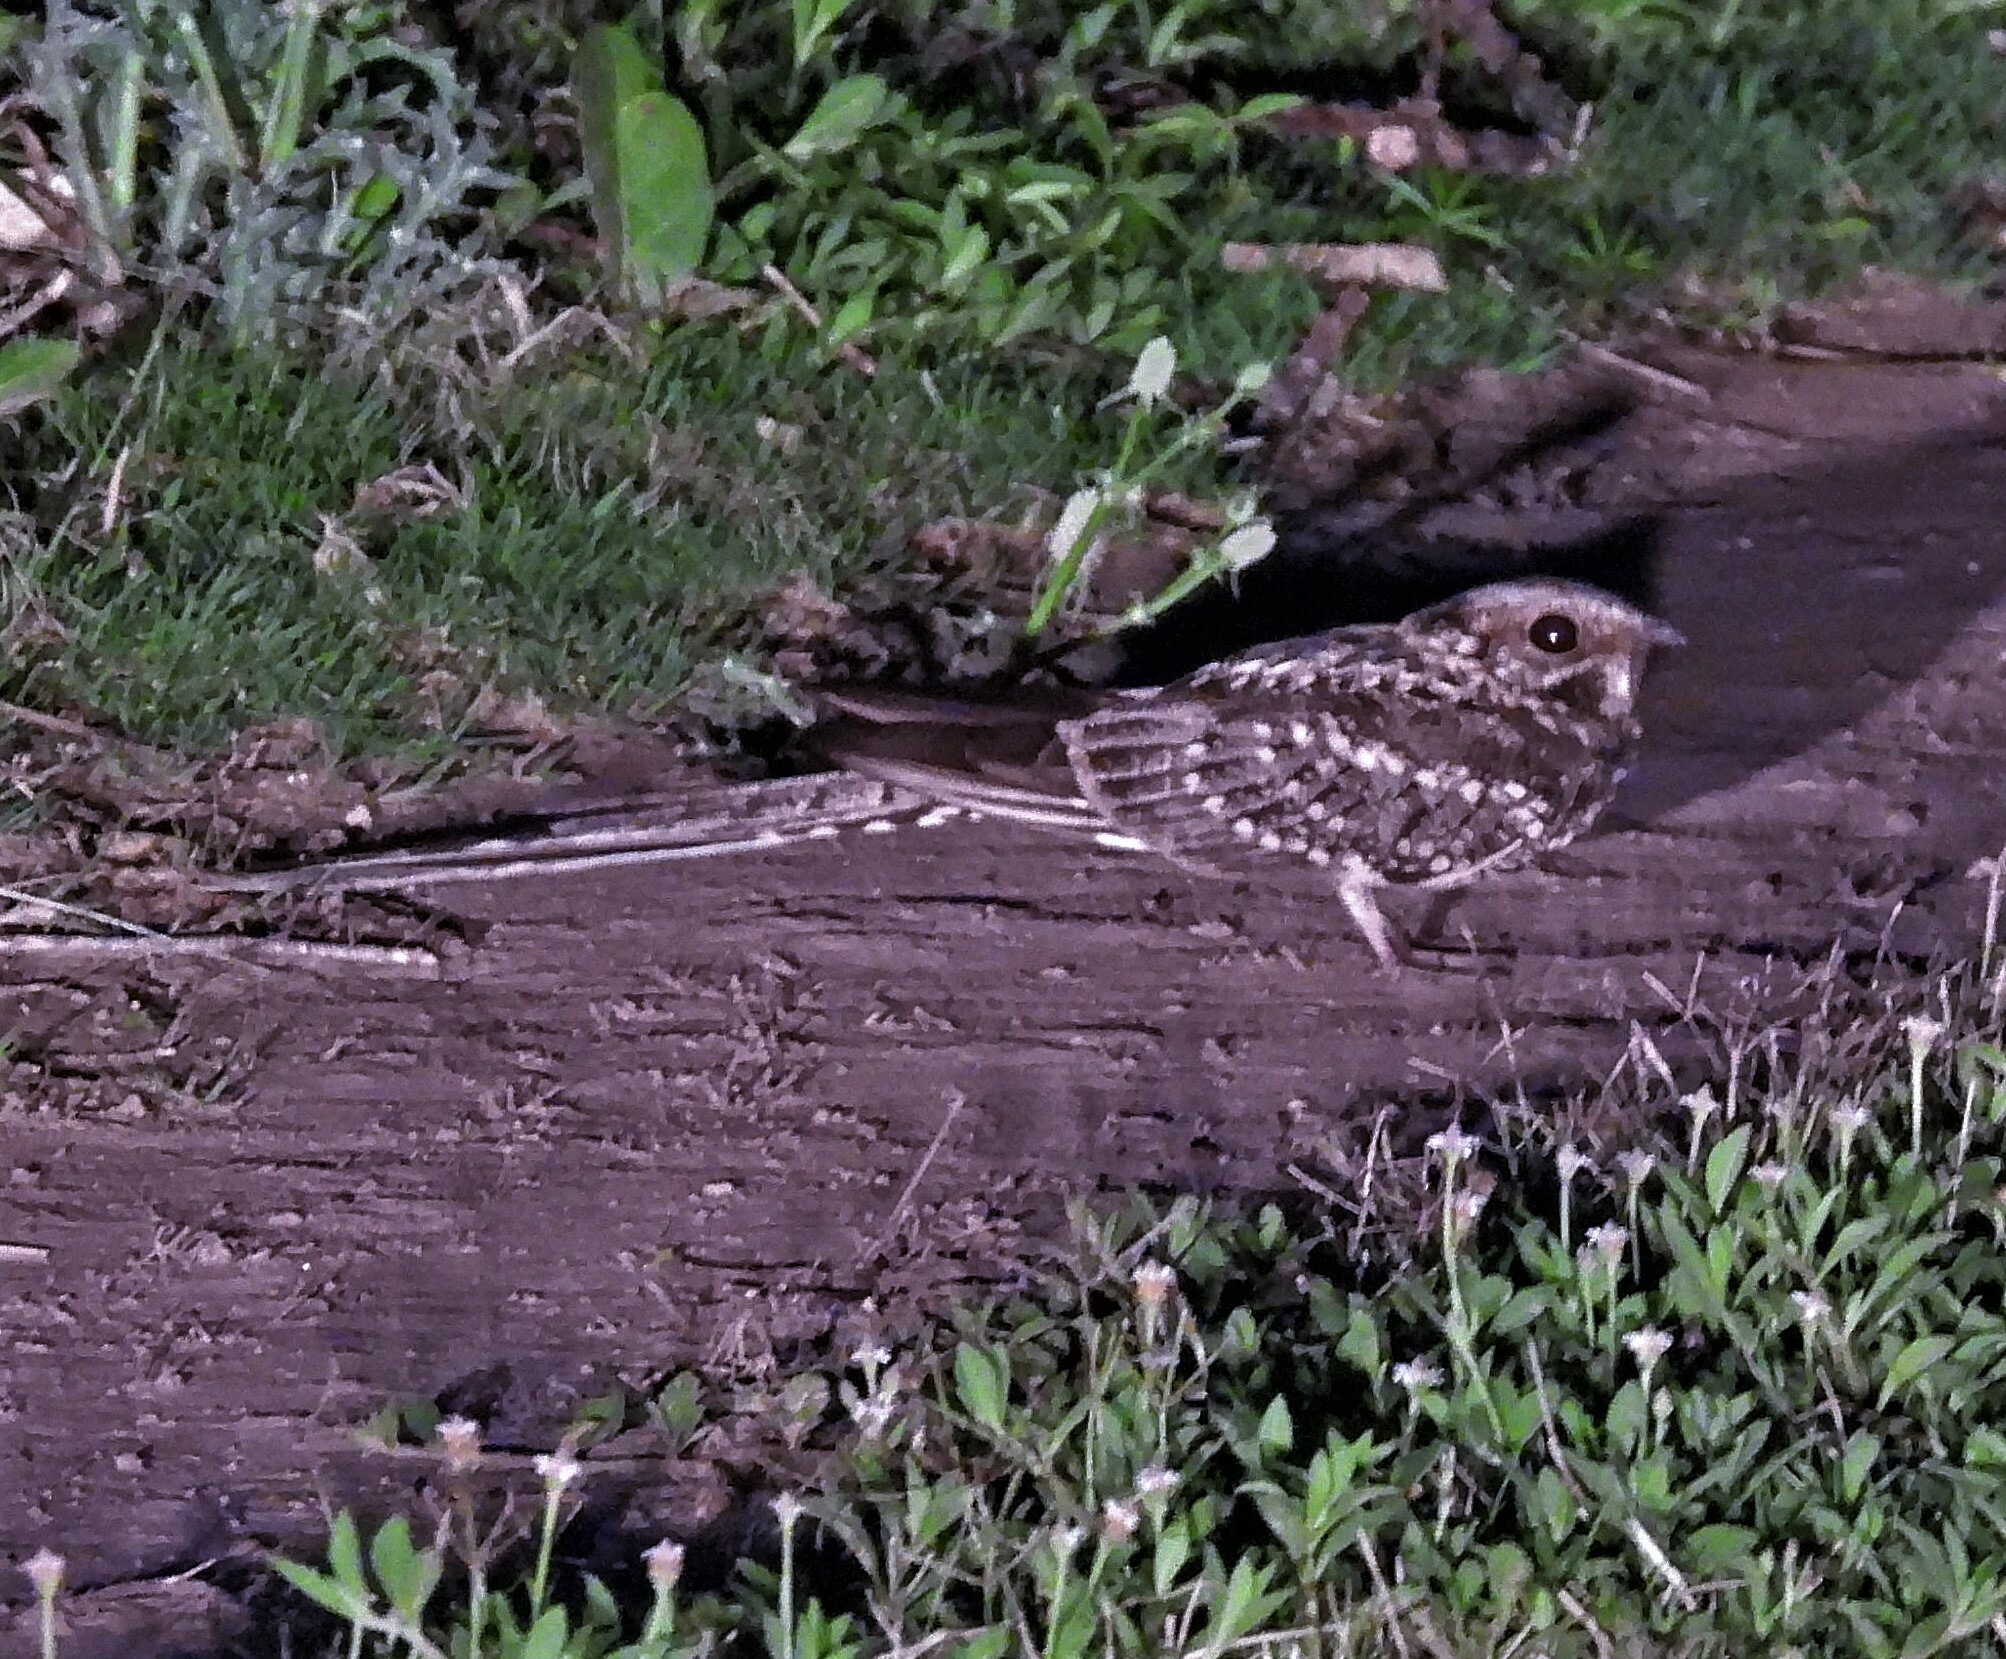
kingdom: Animalia
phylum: Chordata
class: Aves
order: Caprimulgiformes
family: Caprimulgidae
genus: Hydropsalis
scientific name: Hydropsalis torquata
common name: Scissor-tailed nightjar
